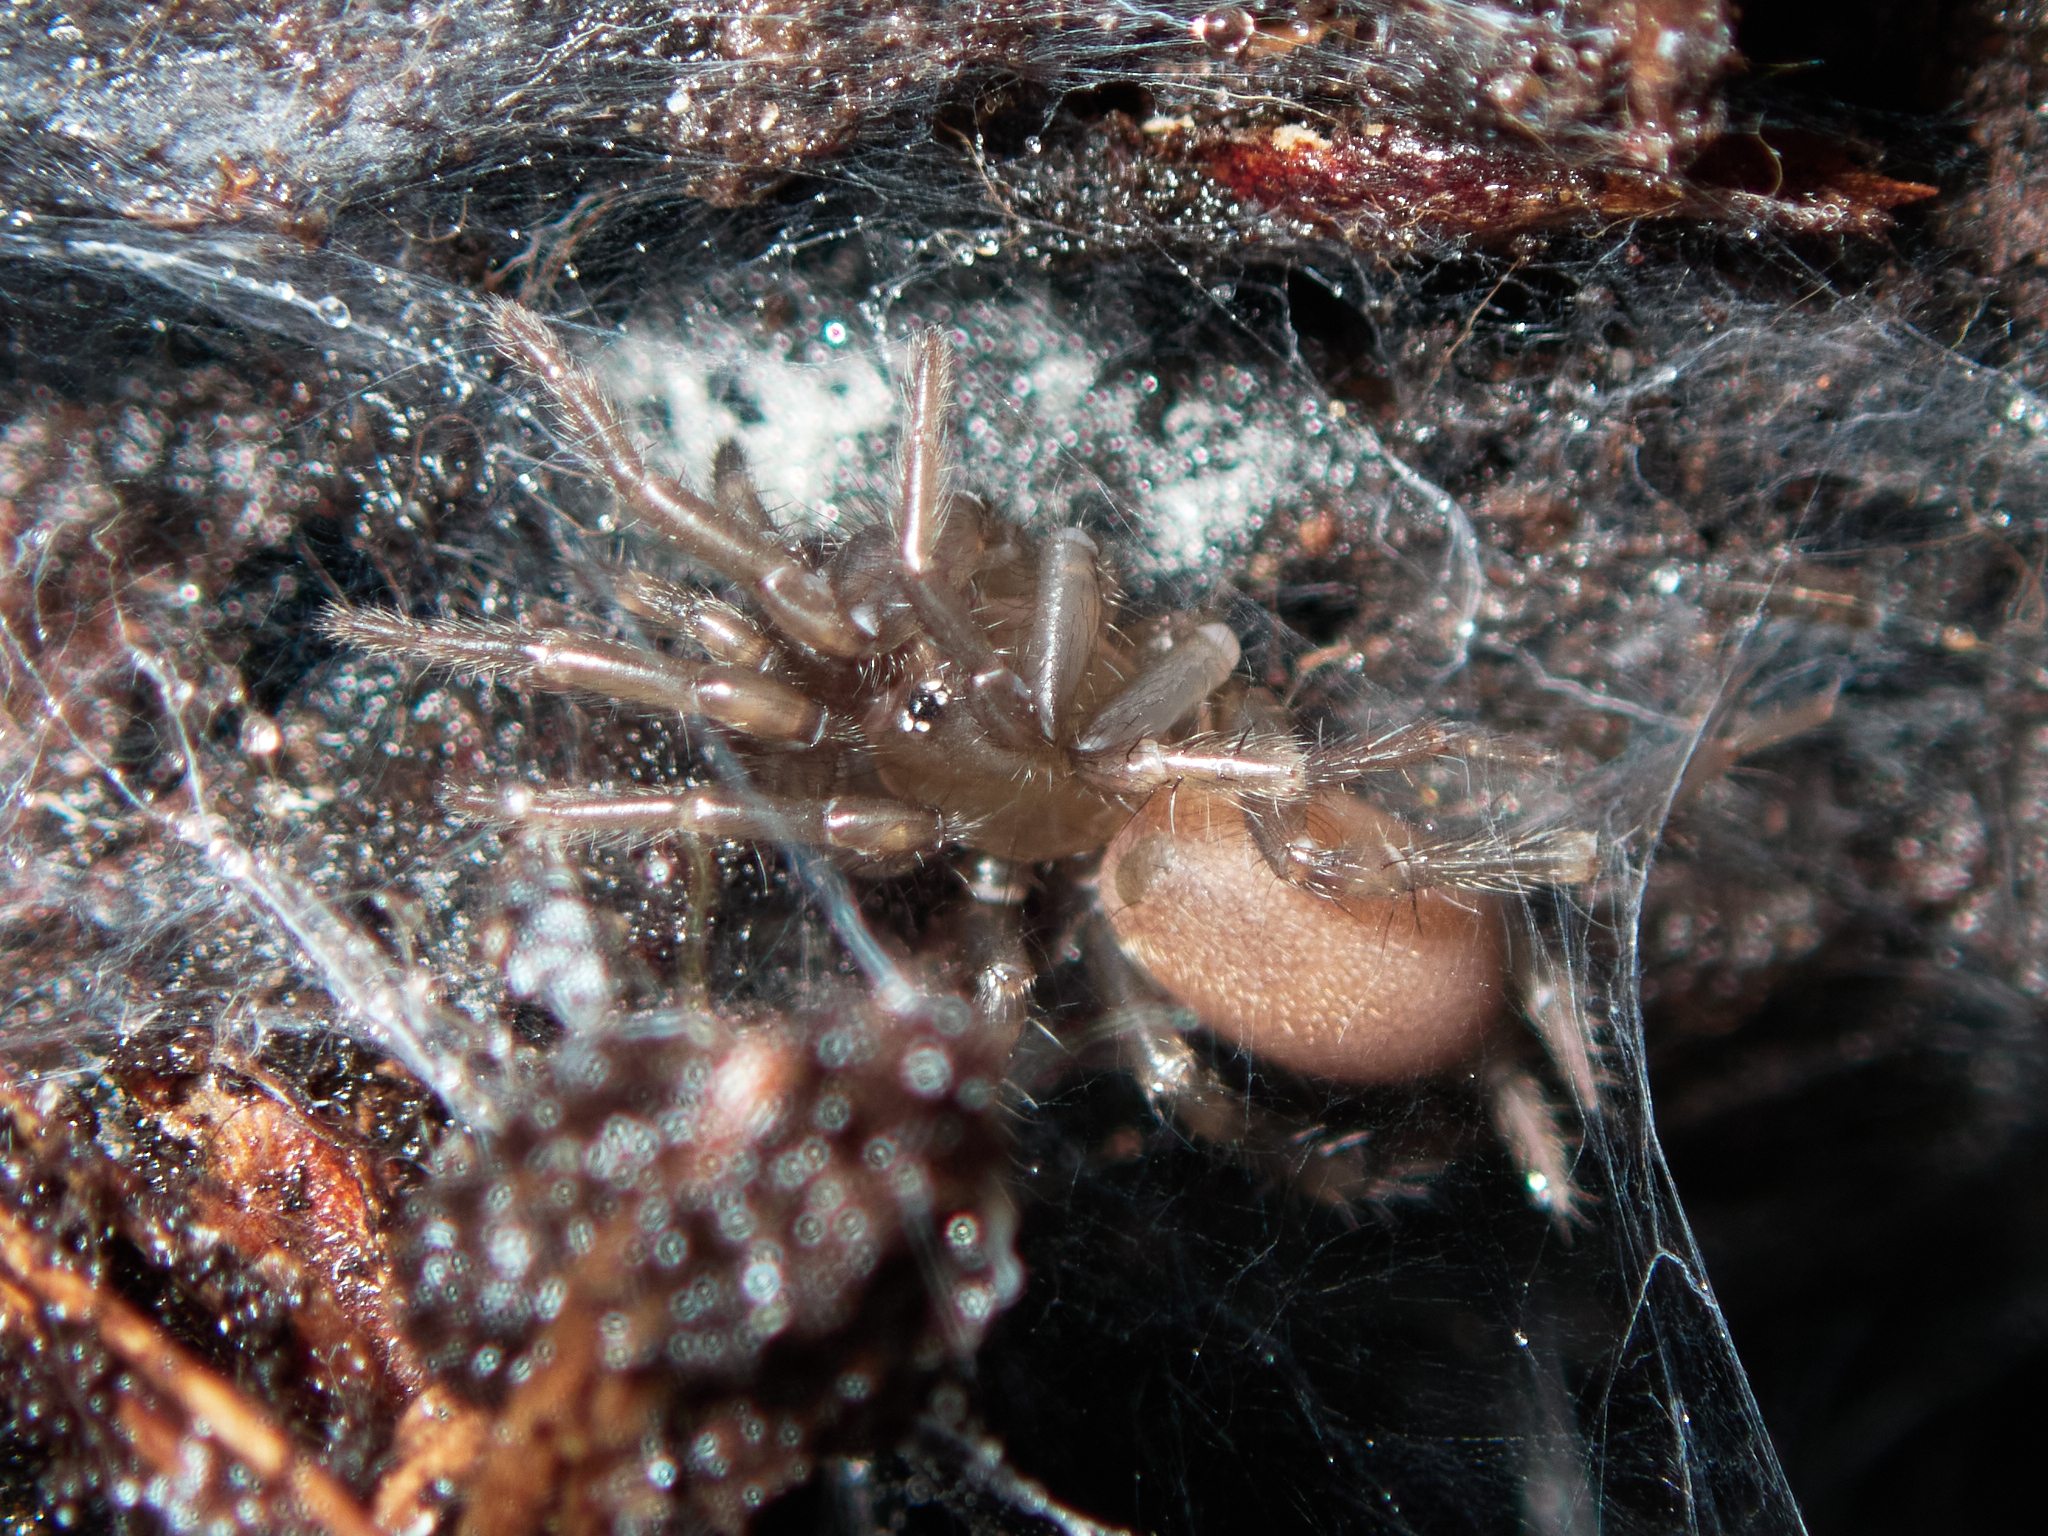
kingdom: Animalia
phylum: Arthropoda
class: Arachnida
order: Araneae
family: Megahexuridae
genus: Megahexura
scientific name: Megahexura fulva
